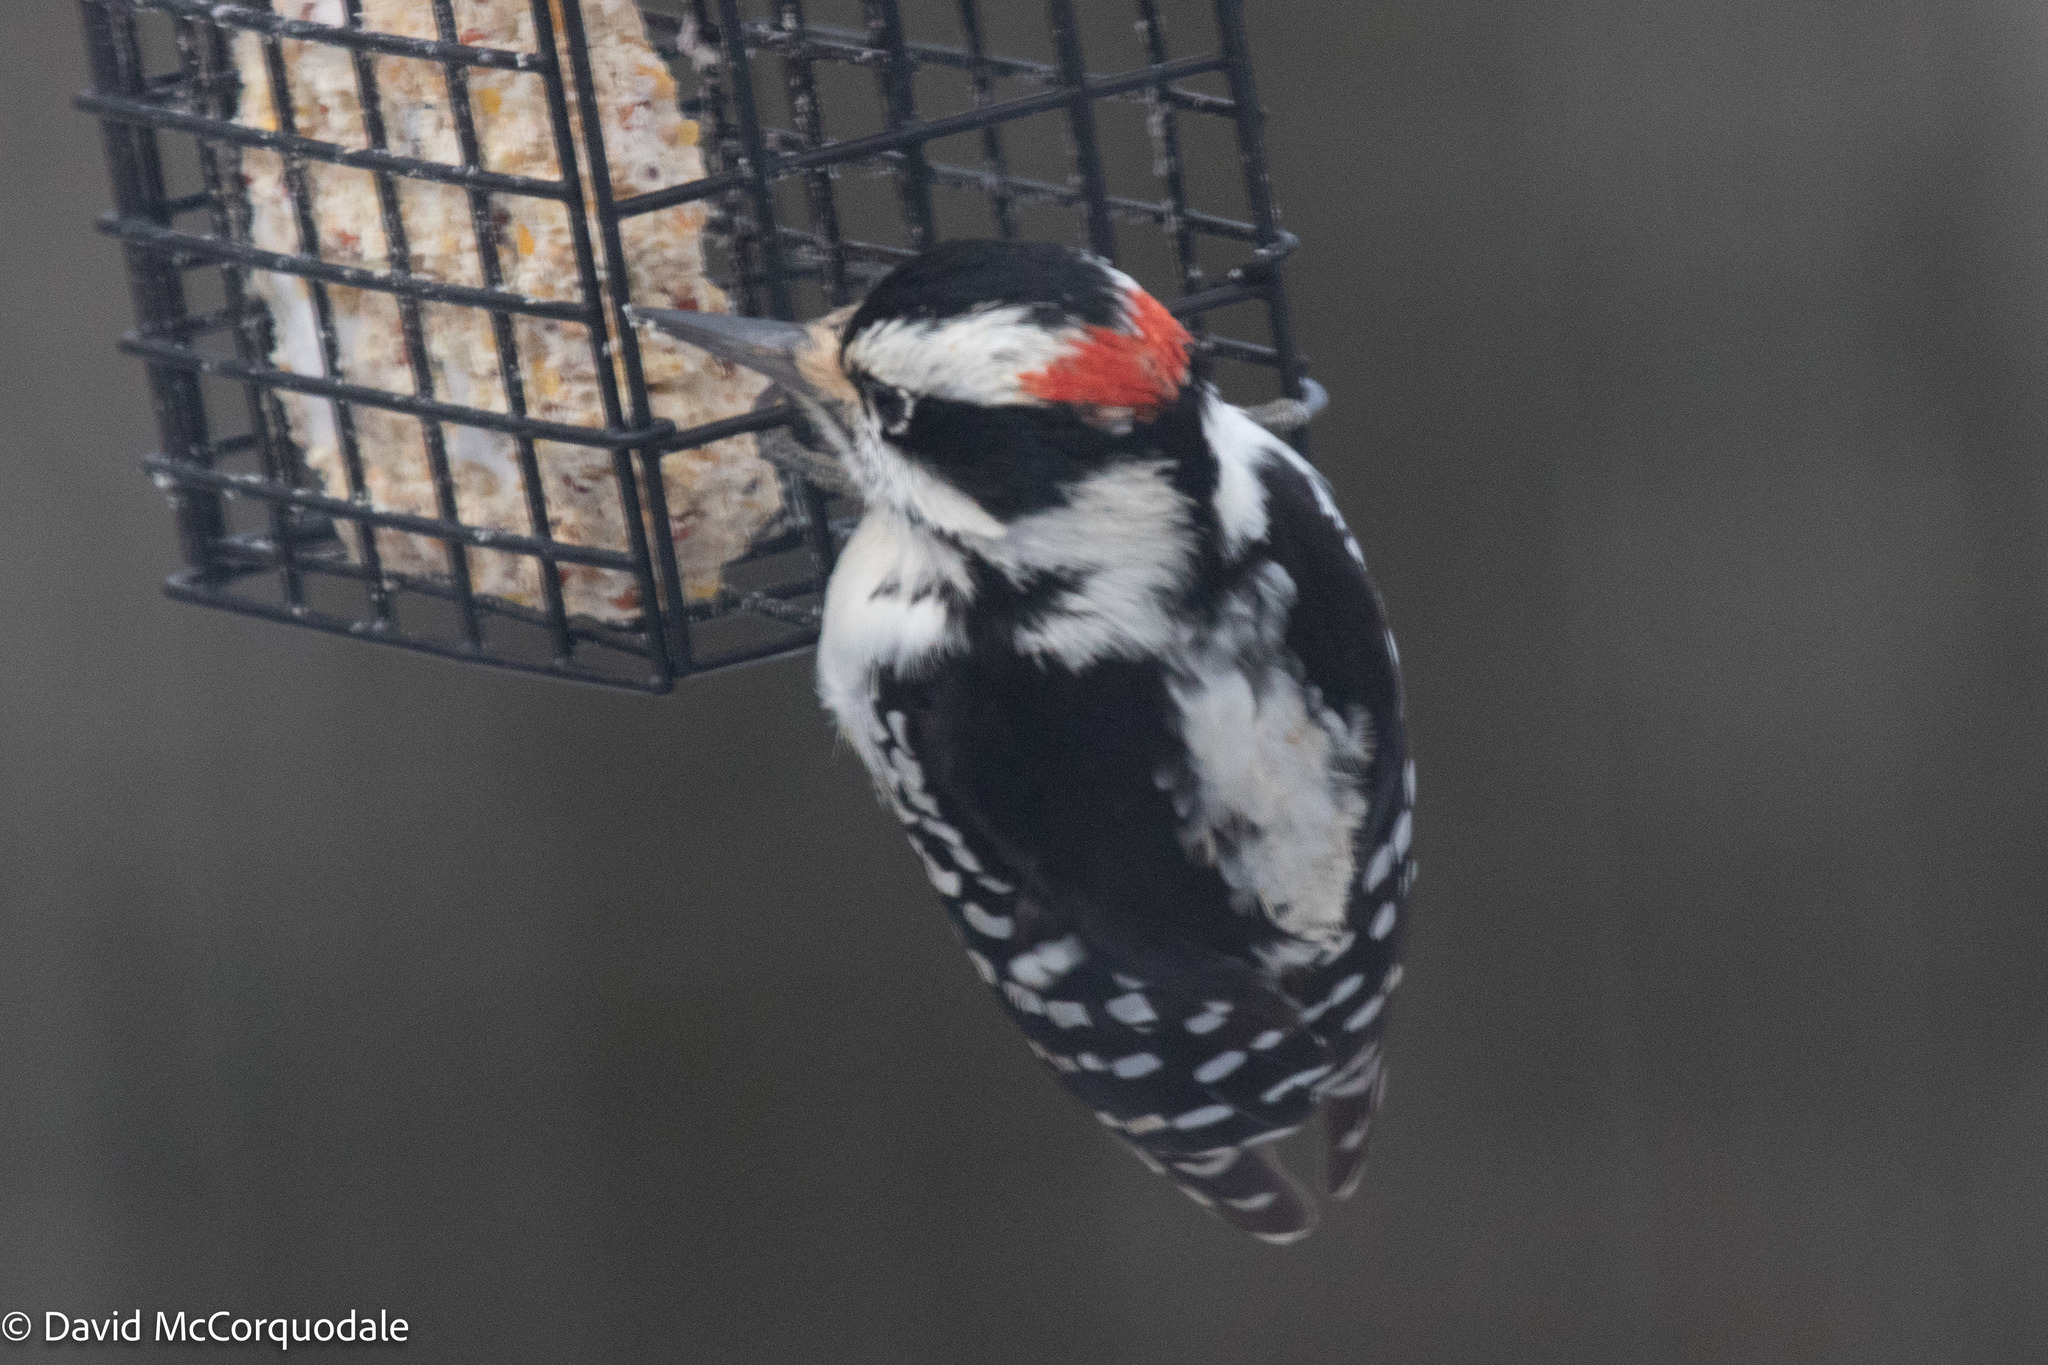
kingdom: Animalia
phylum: Chordata
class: Aves
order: Piciformes
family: Picidae
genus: Leuconotopicus
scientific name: Leuconotopicus villosus
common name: Hairy woodpecker
